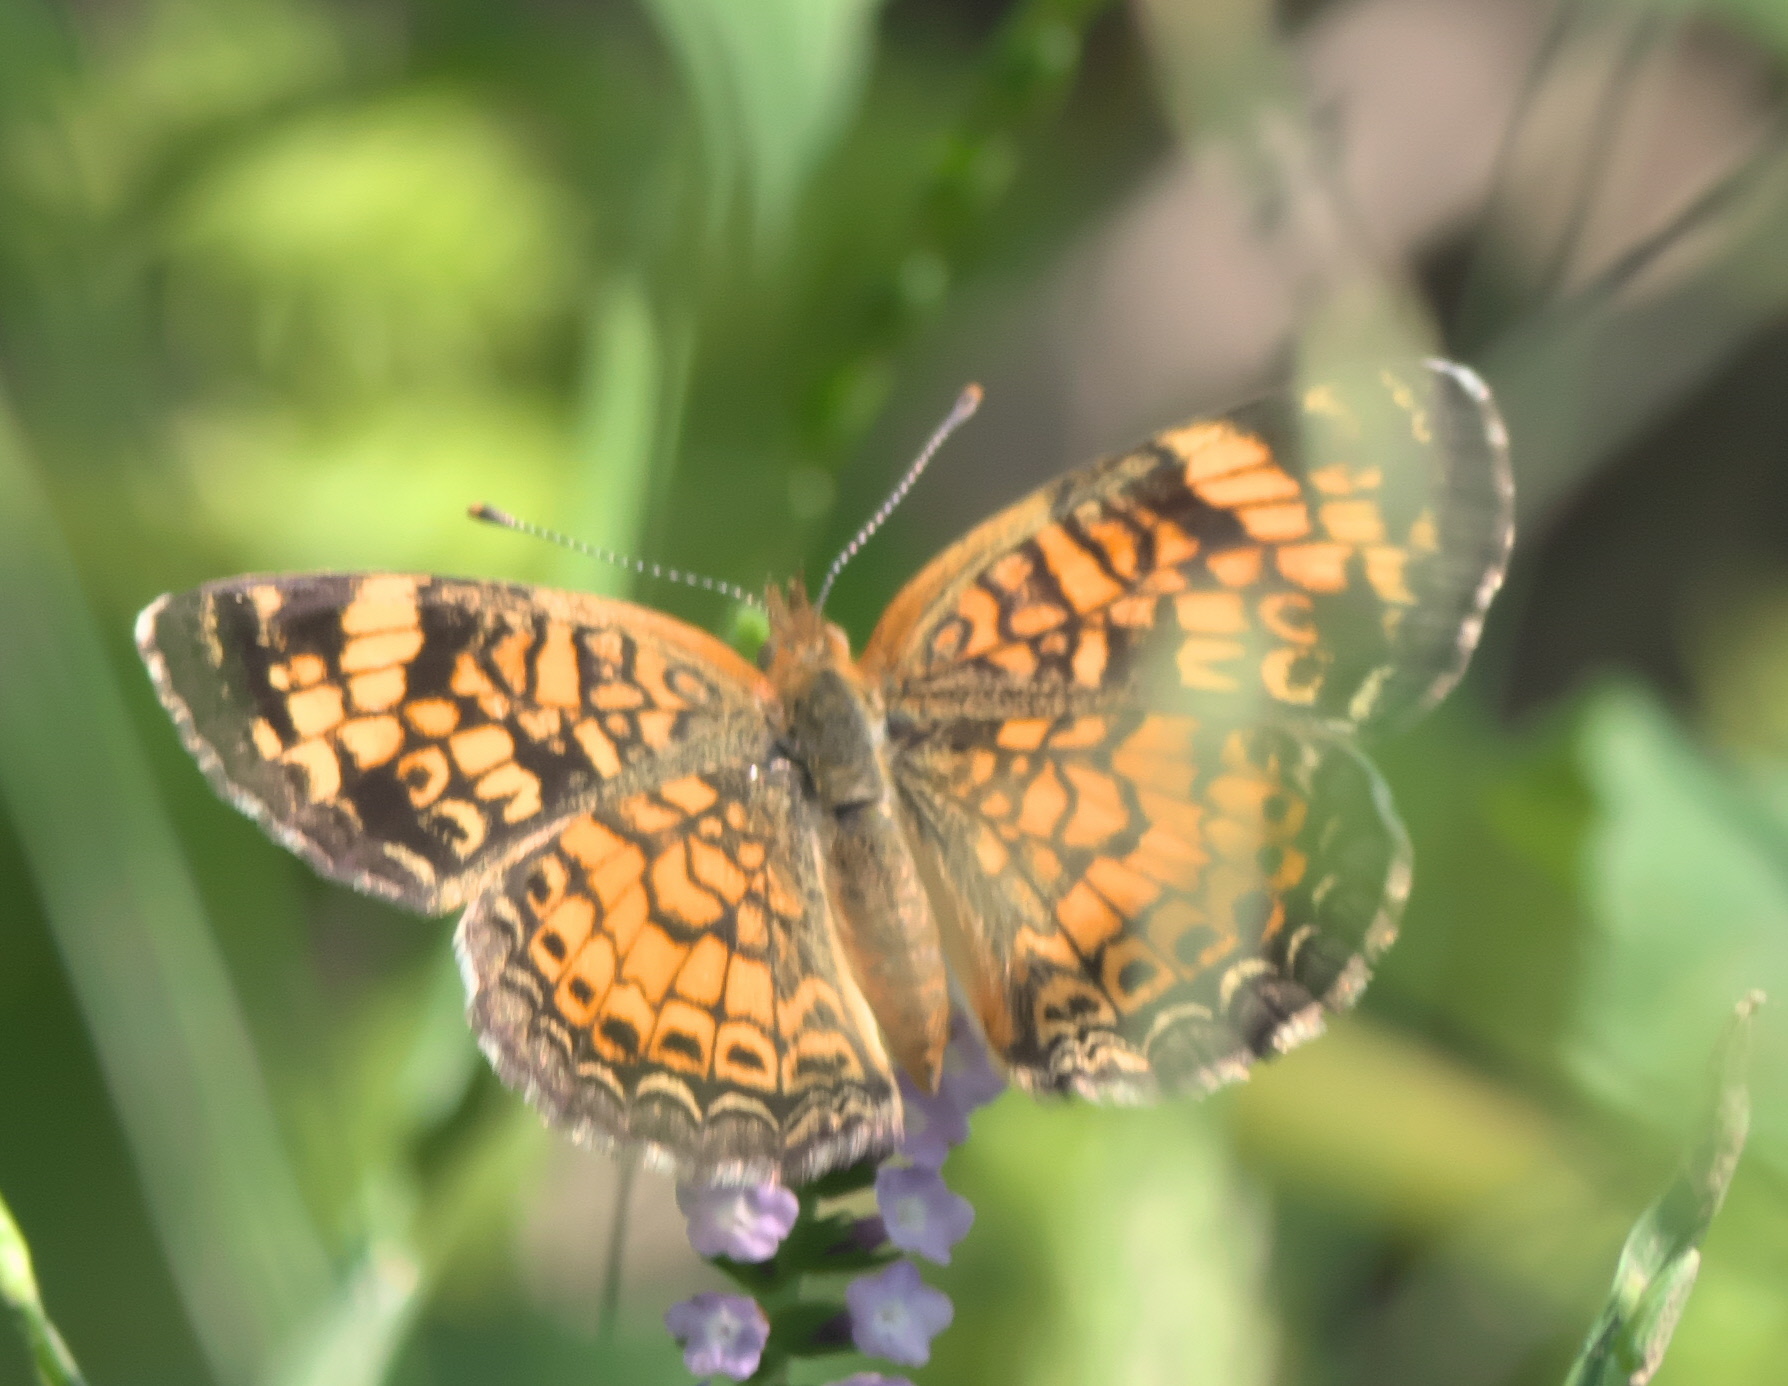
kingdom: Animalia
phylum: Arthropoda
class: Insecta
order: Lepidoptera
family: Nymphalidae
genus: Phyciodes
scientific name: Phyciodes tharos
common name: Pearl crescent
